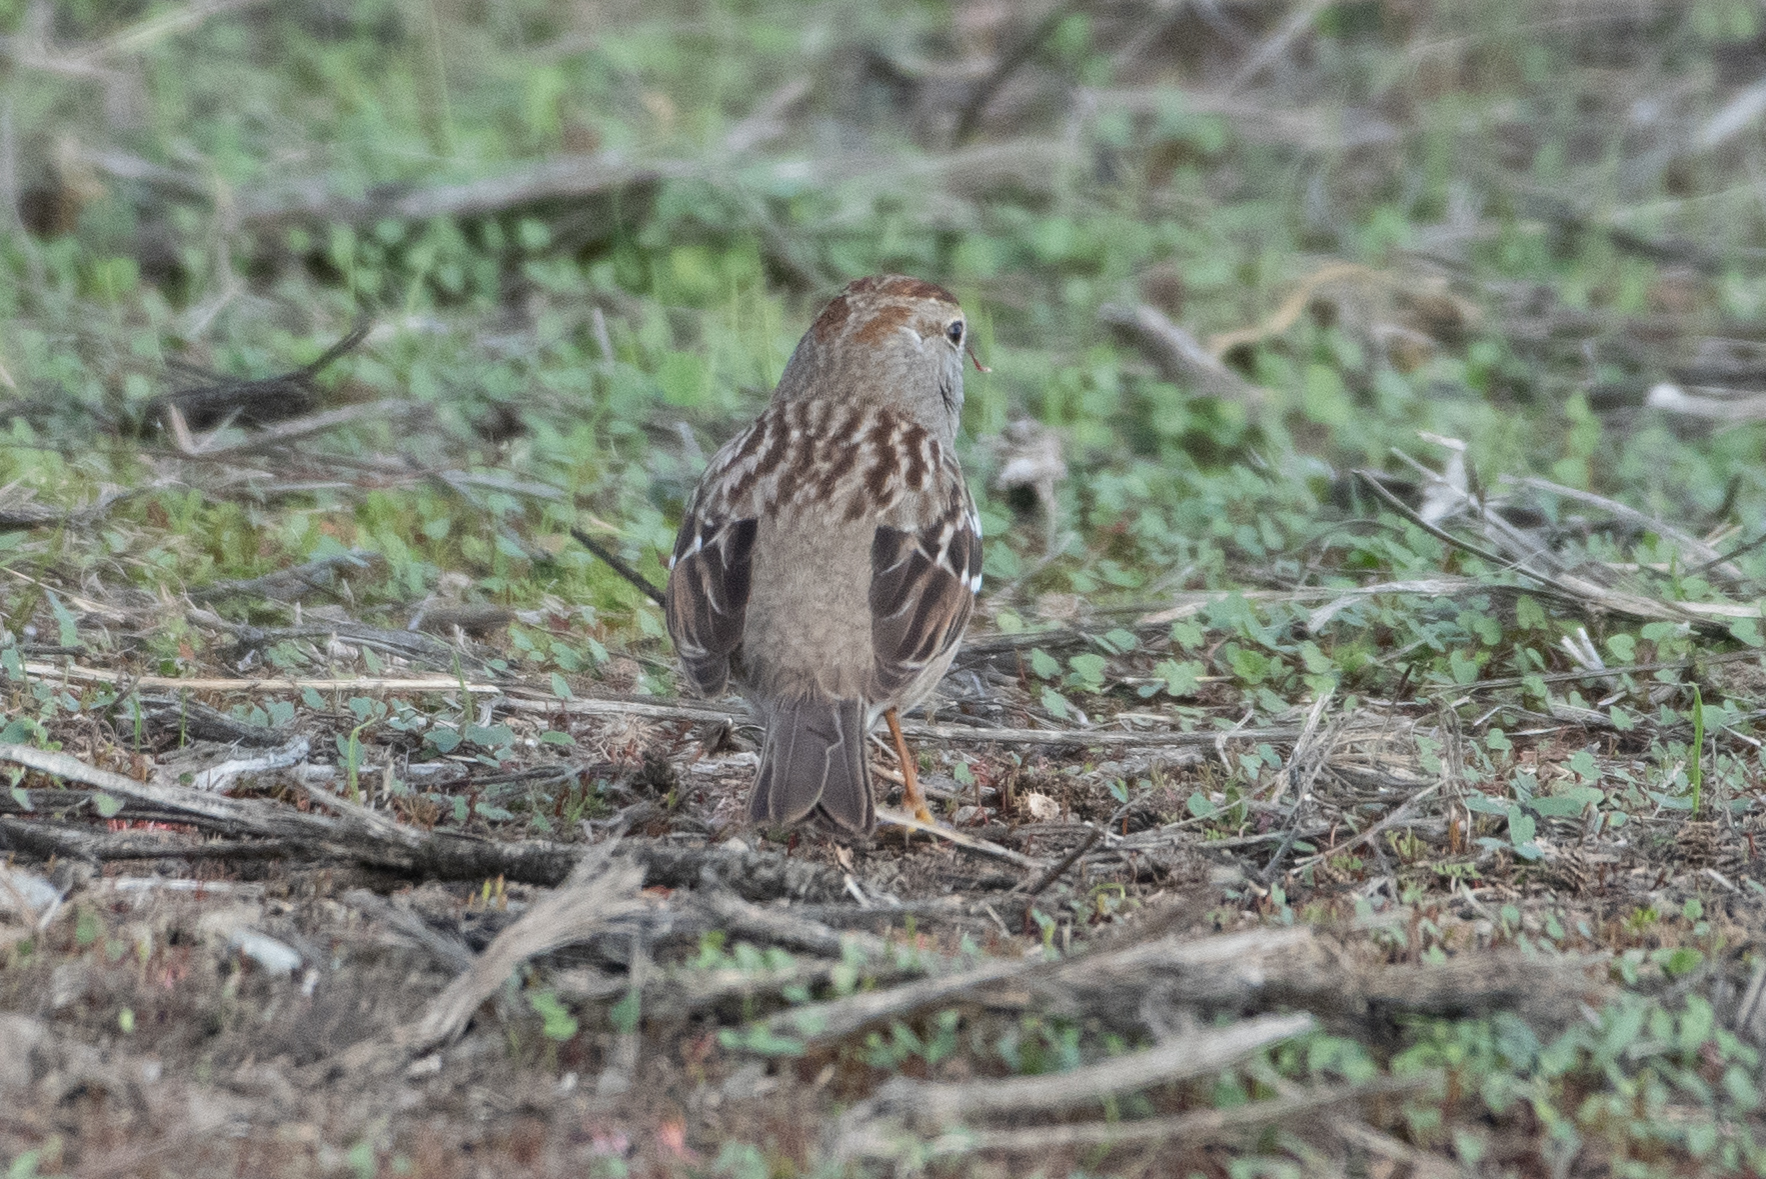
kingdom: Animalia
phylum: Chordata
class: Aves
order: Passeriformes
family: Passerellidae
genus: Zonotrichia
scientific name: Zonotrichia leucophrys
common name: White-crowned sparrow
